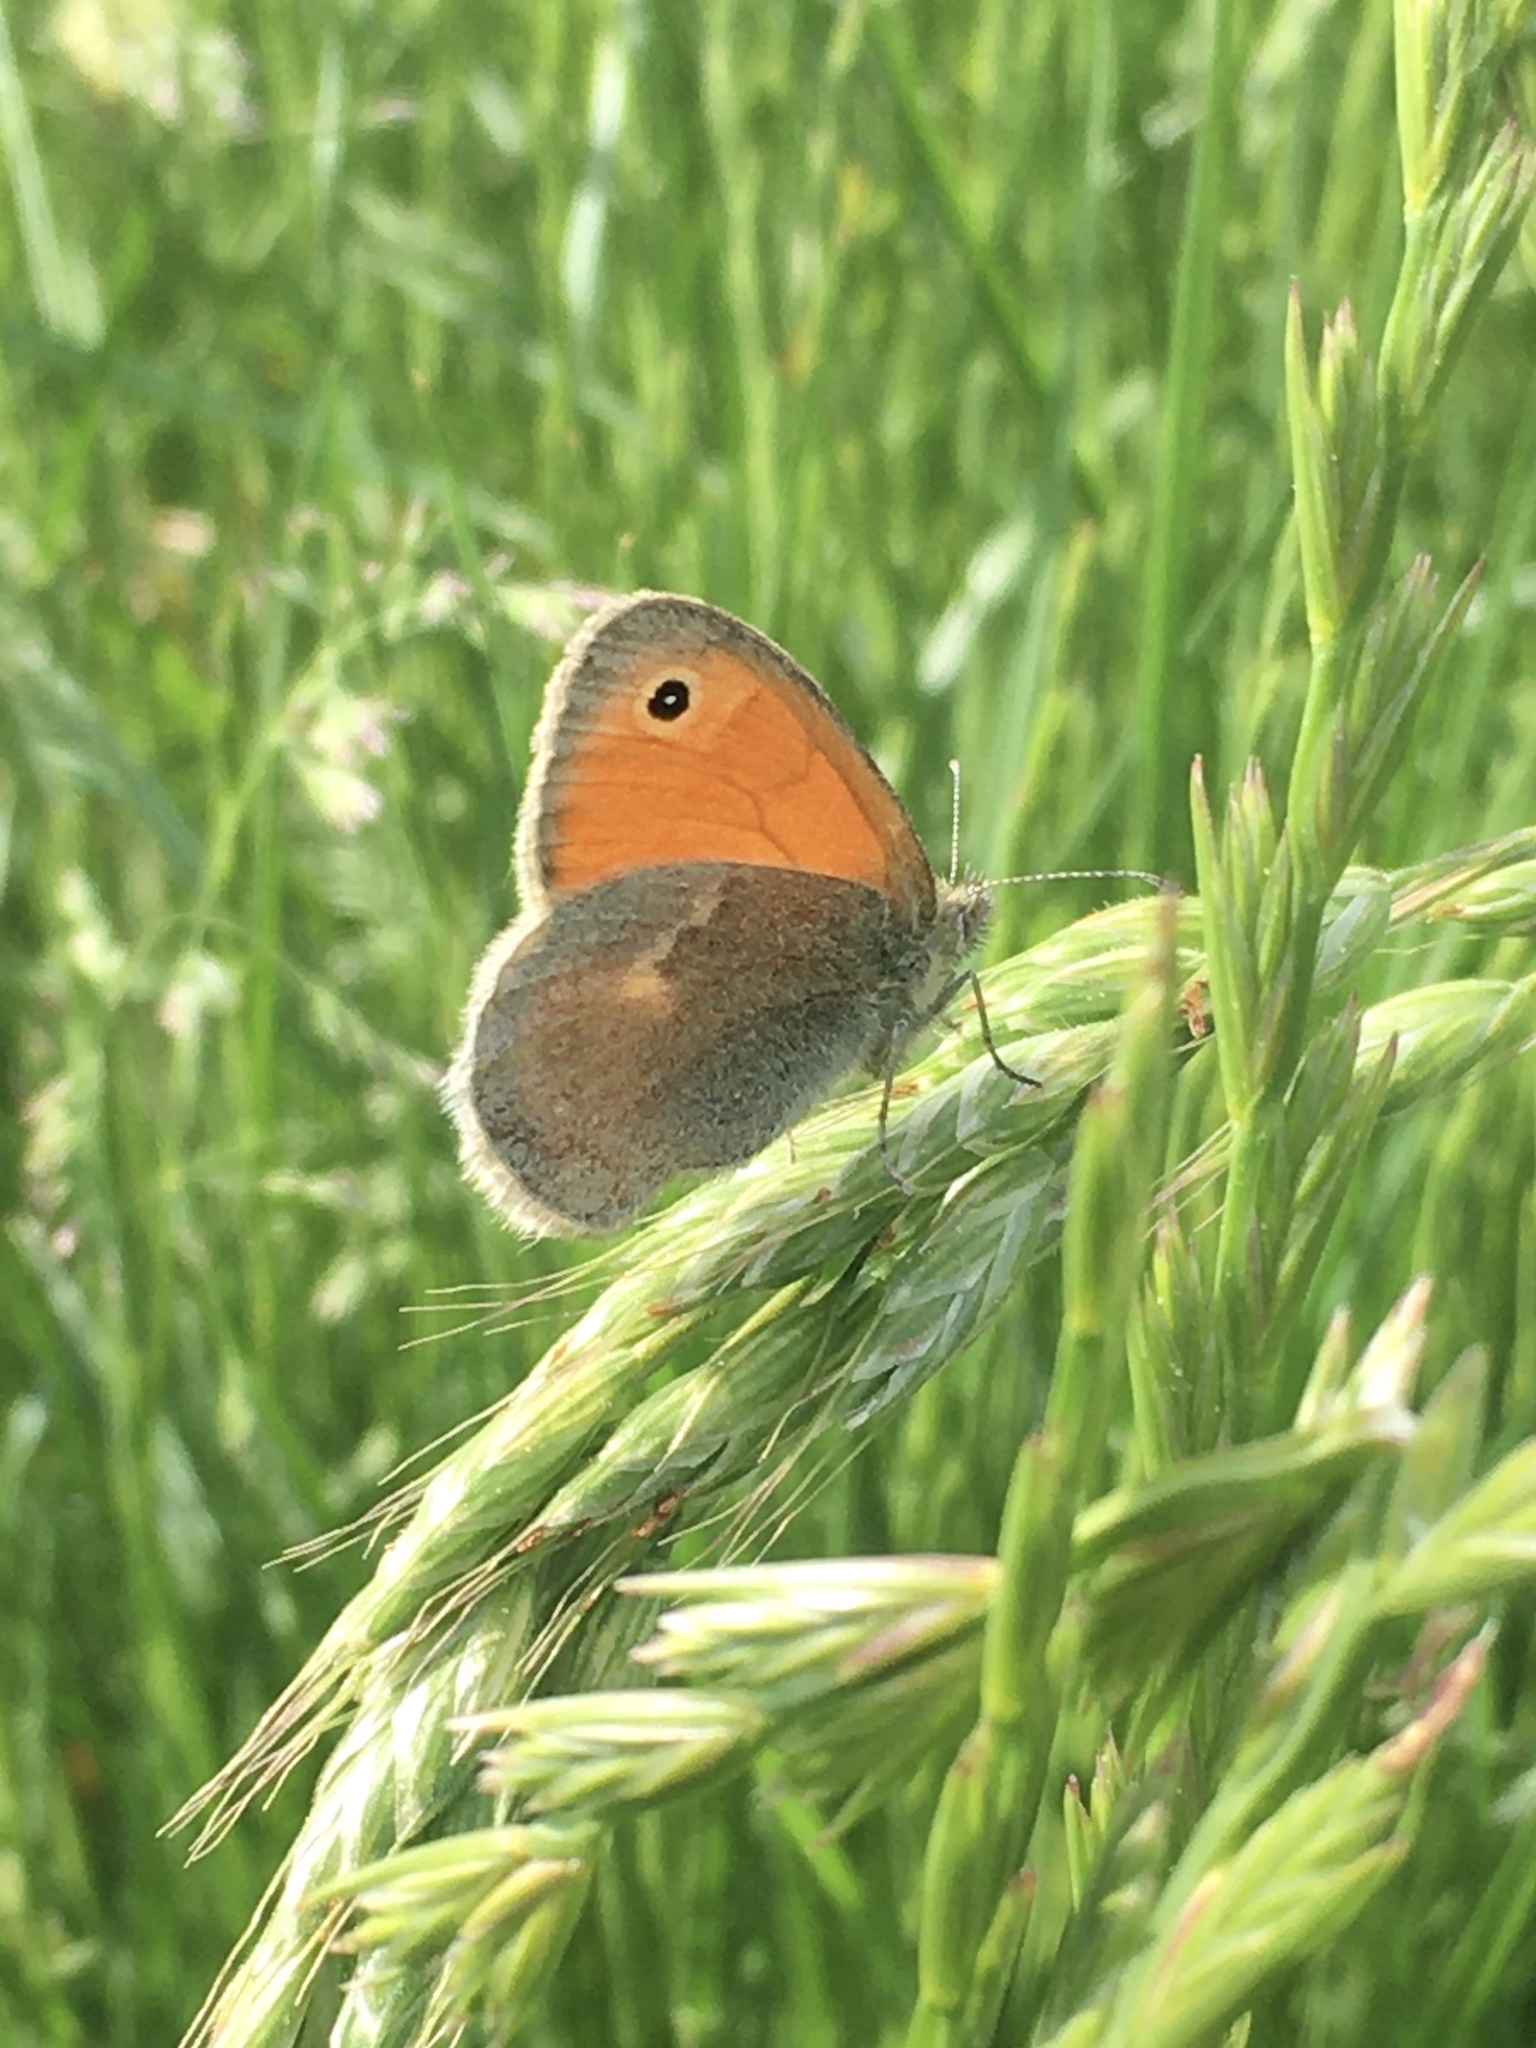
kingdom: Animalia
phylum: Arthropoda
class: Insecta
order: Lepidoptera
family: Nymphalidae
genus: Coenonympha
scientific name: Coenonympha pamphilus
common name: Small heath
